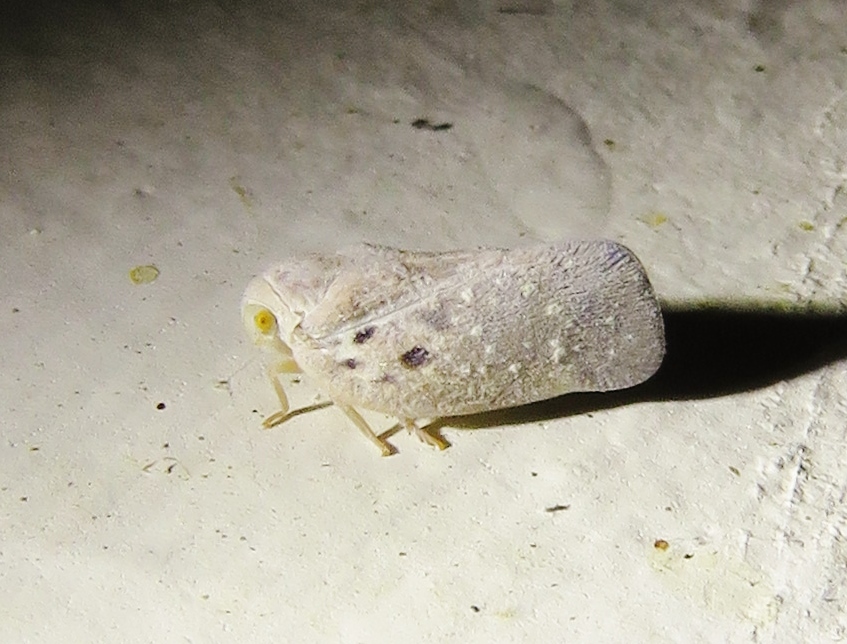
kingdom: Animalia
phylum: Arthropoda
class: Insecta
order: Hemiptera
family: Flatidae
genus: Metcalfa
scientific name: Metcalfa pruinosa
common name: Citrus flatid planthopper
